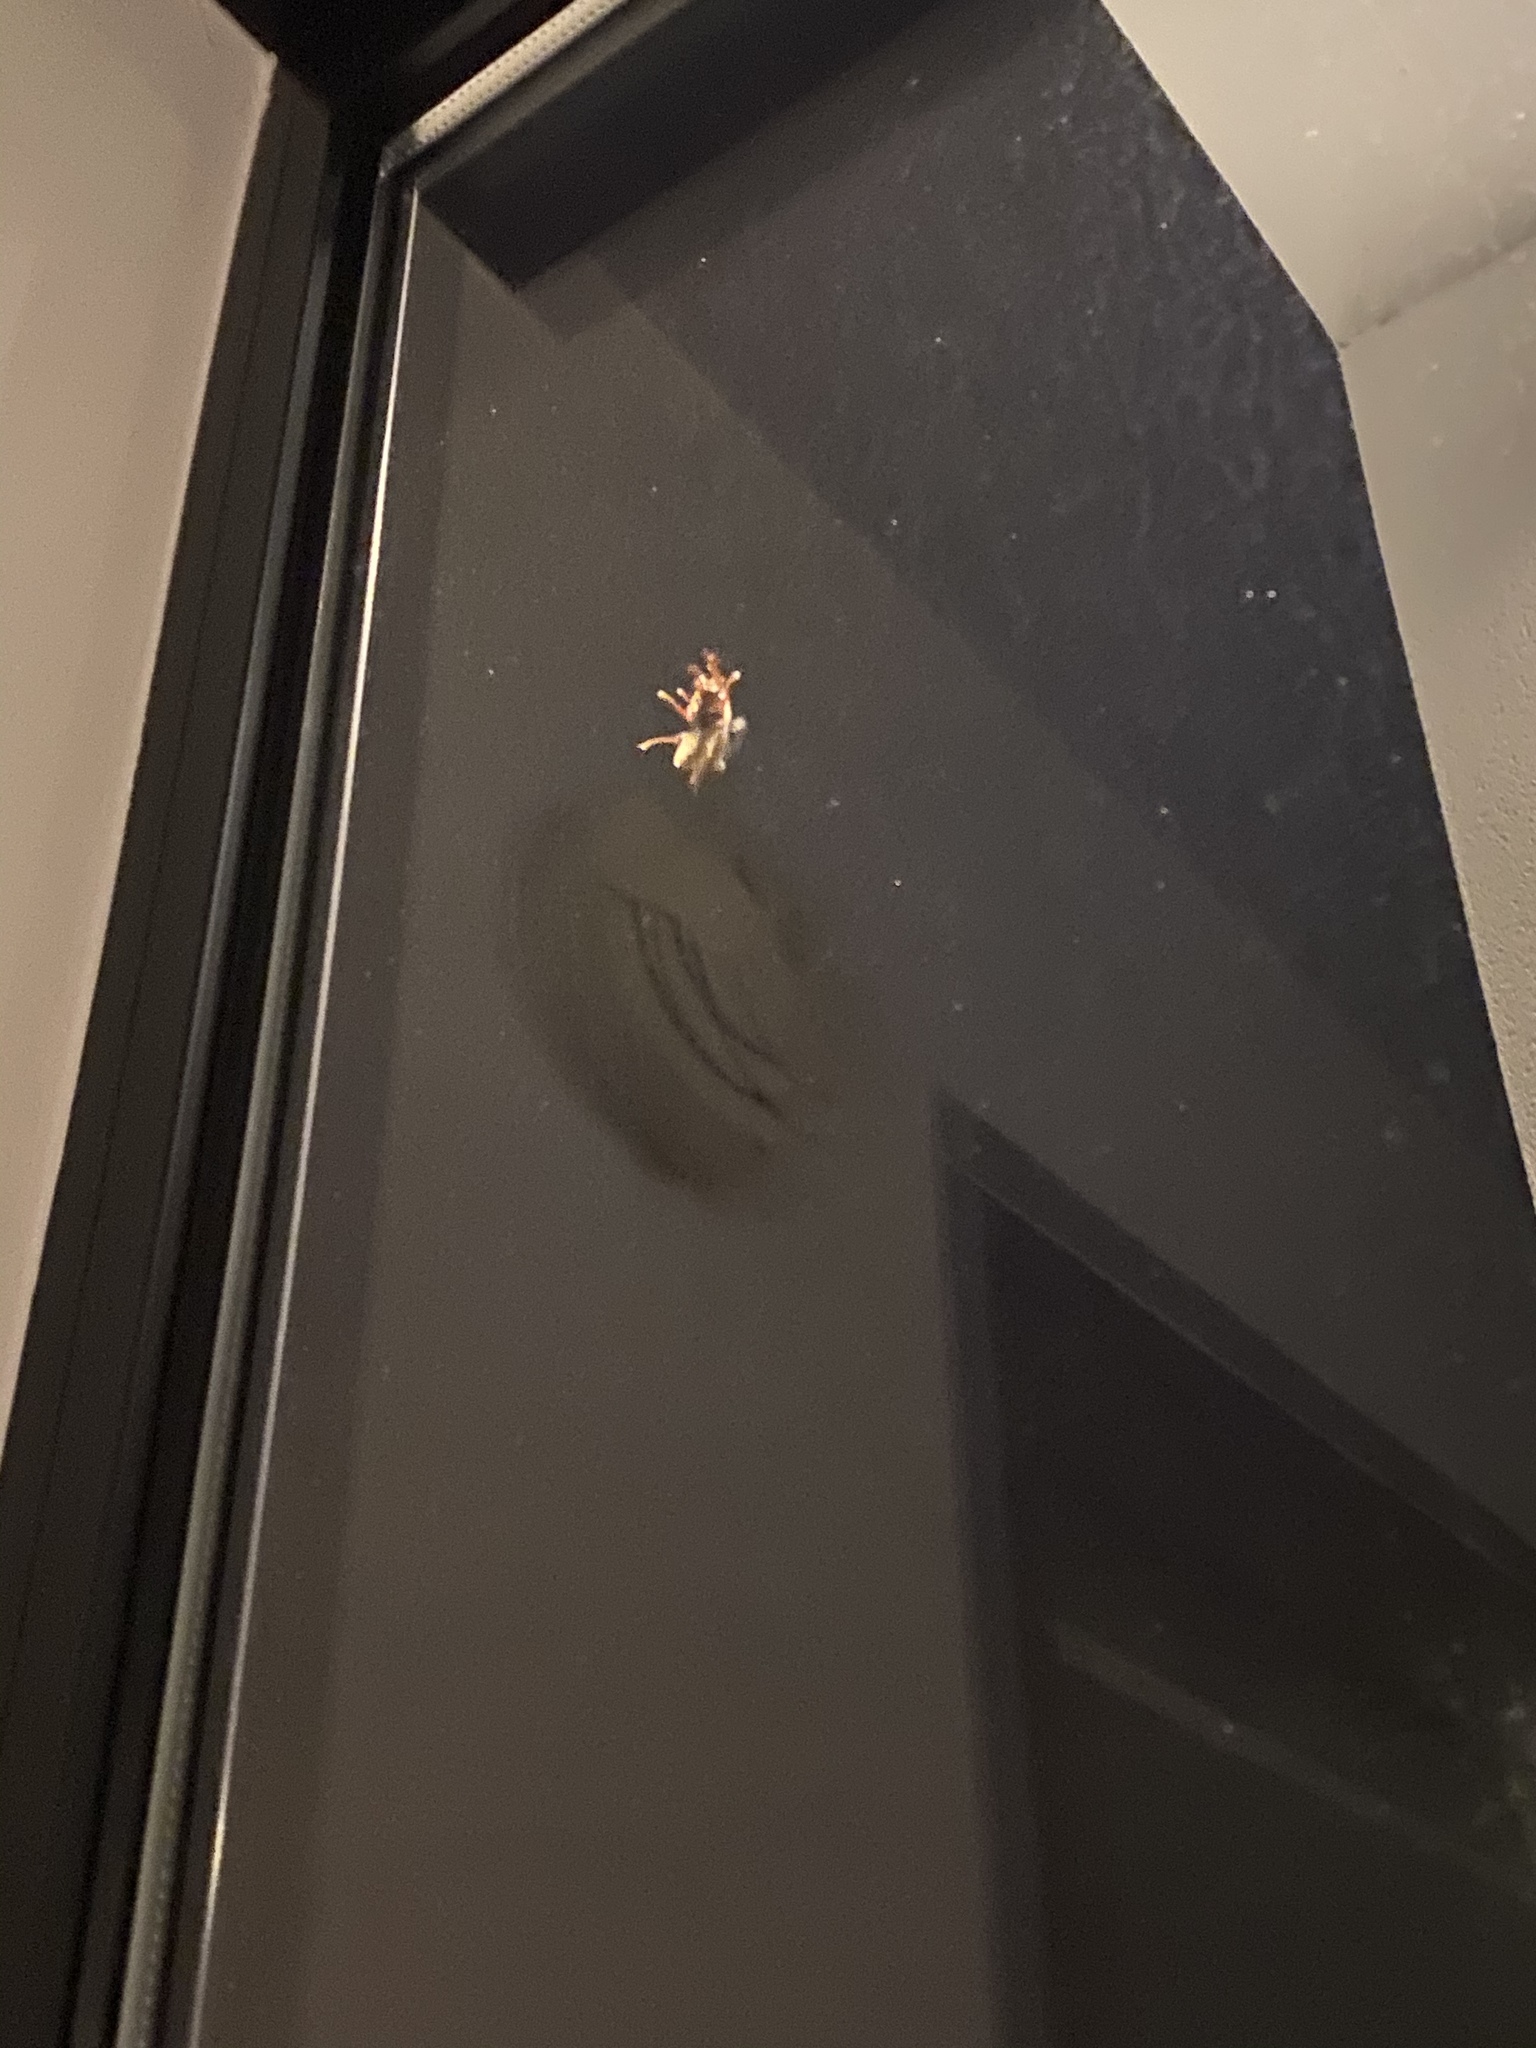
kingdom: Animalia
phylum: Arthropoda
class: Insecta
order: Hymenoptera
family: Vespidae
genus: Vespa
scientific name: Vespa crabro
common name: Hornet
